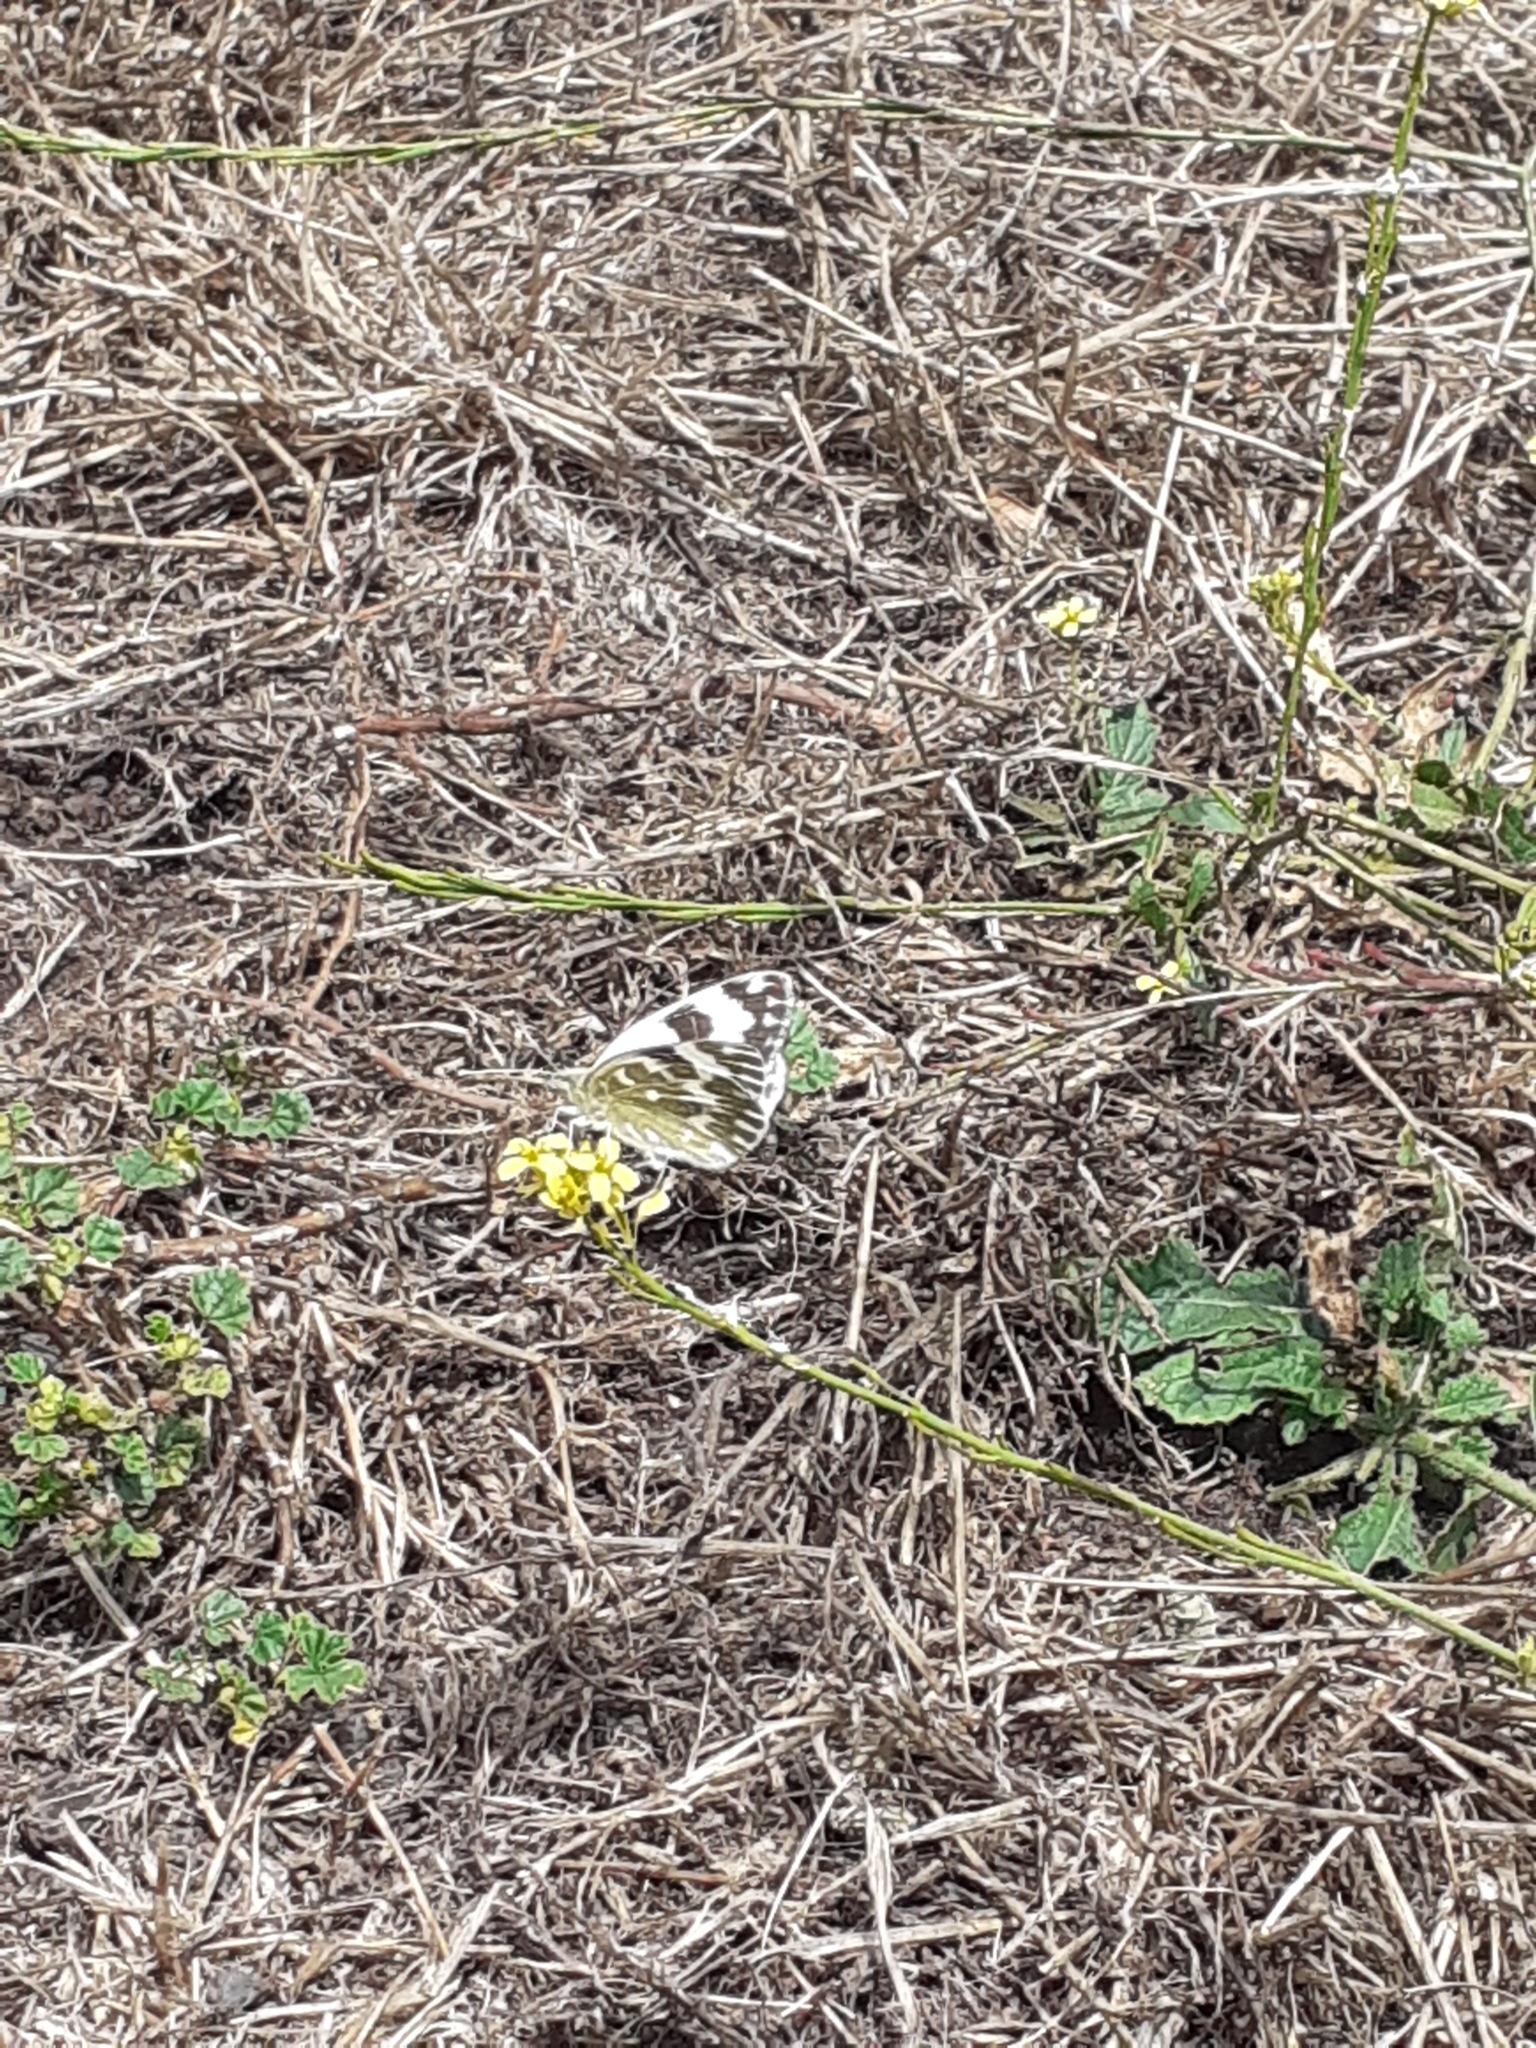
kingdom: Animalia
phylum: Arthropoda
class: Insecta
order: Lepidoptera
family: Pieridae
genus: Pontia
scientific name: Pontia daplidice
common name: Bath white
